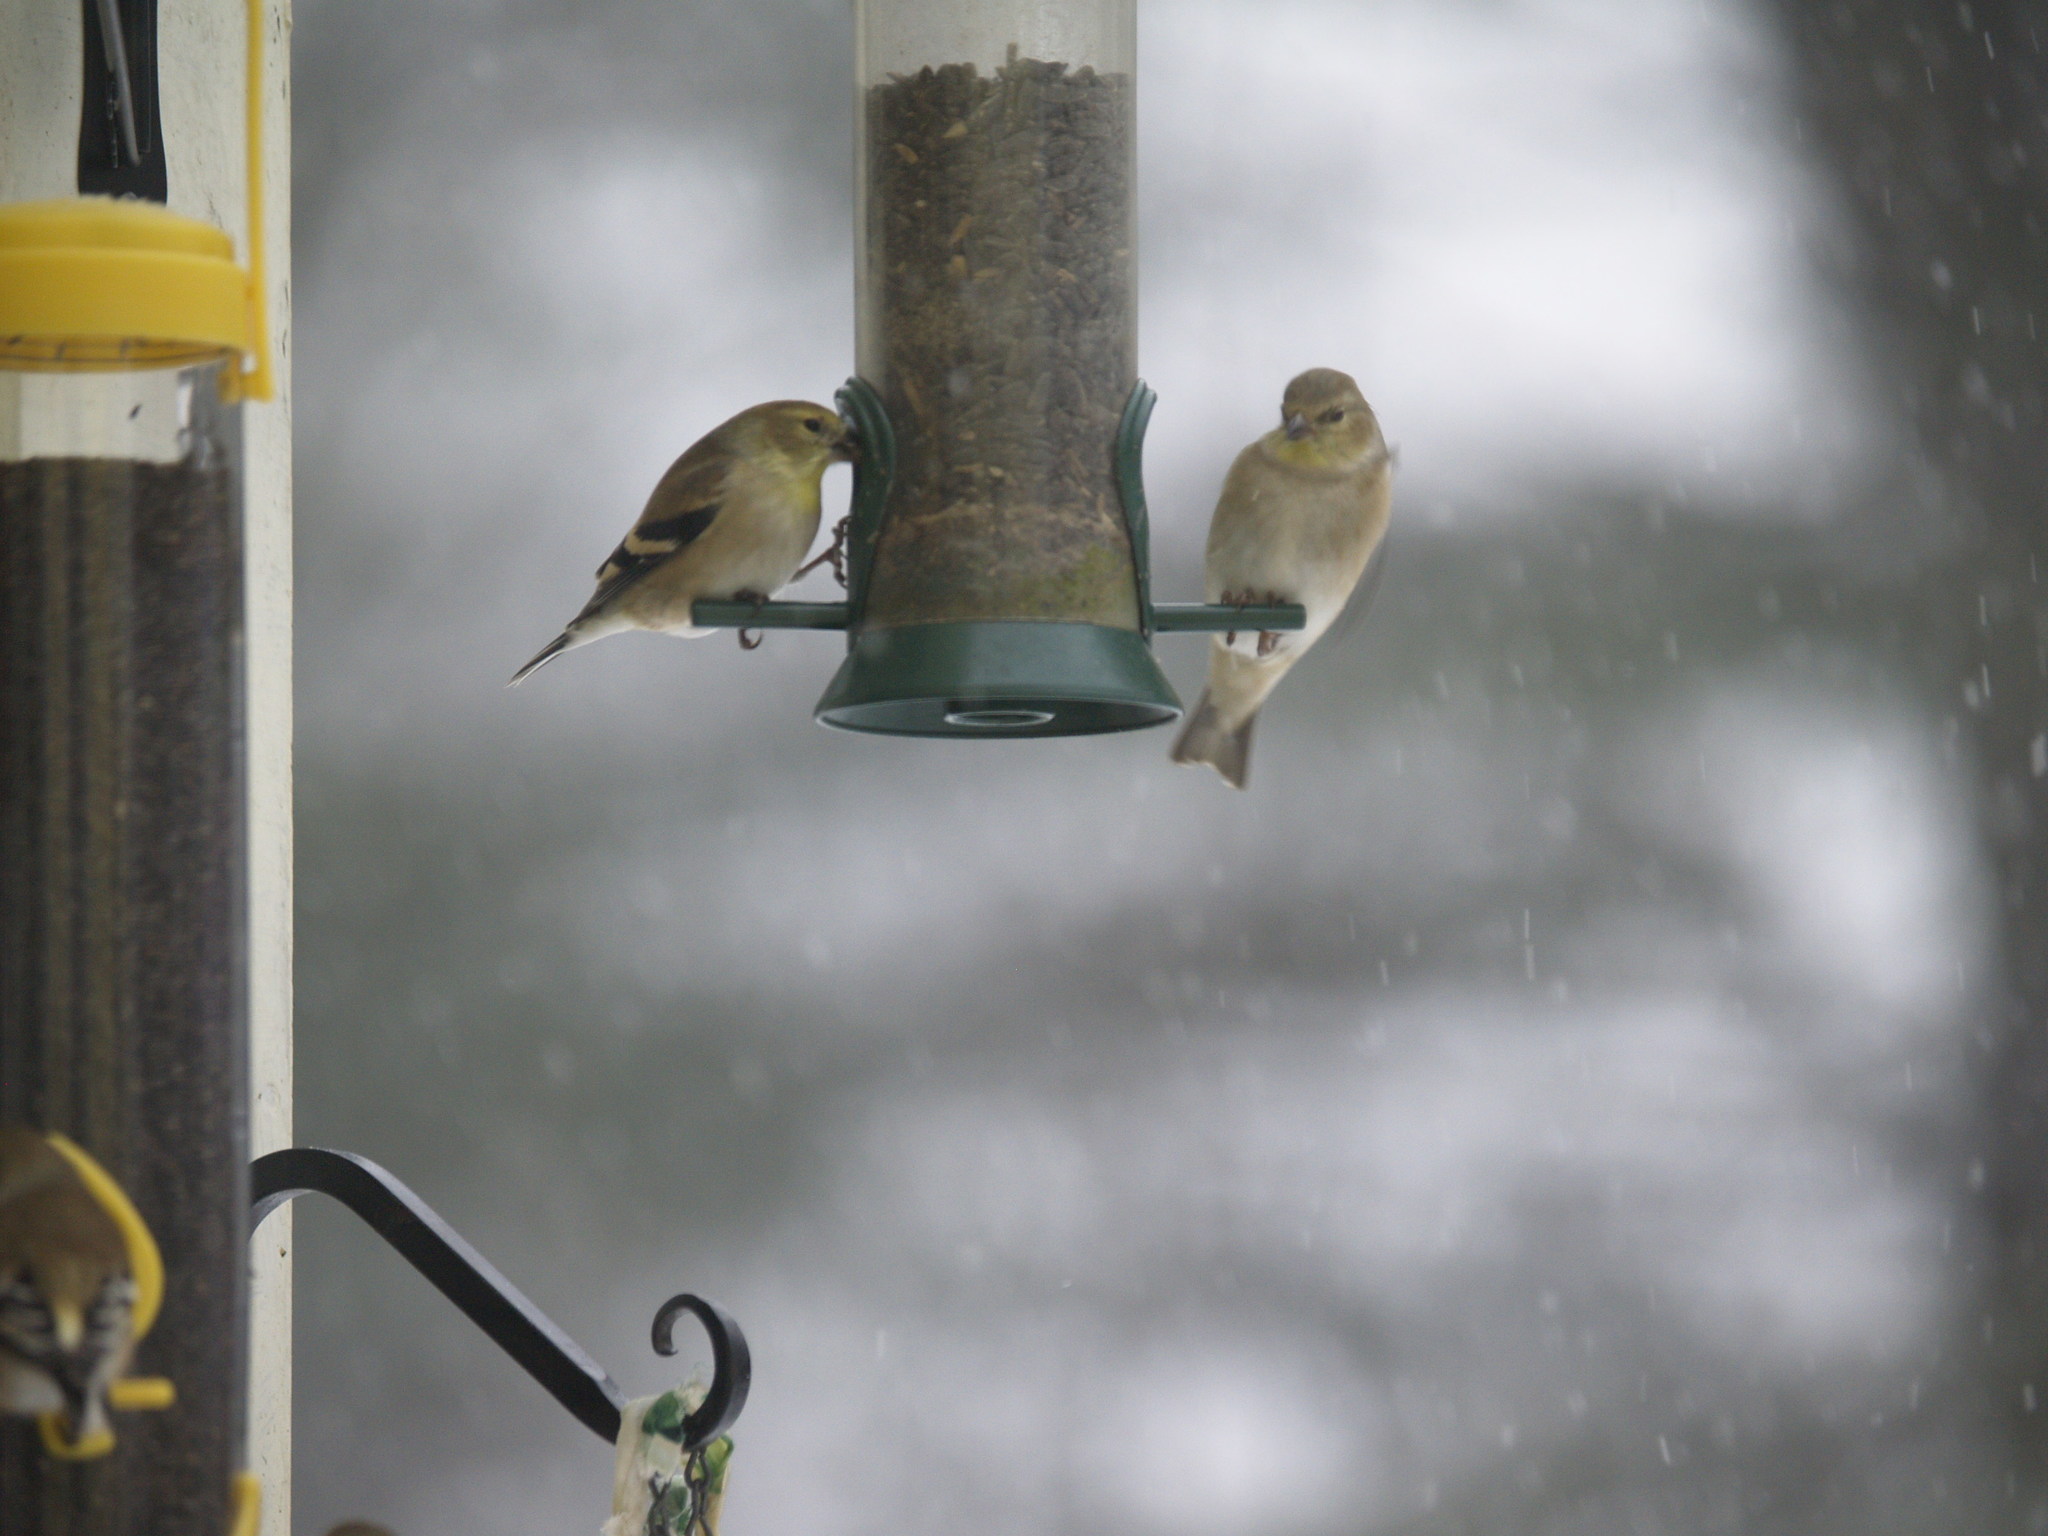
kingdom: Animalia
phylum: Chordata
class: Aves
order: Passeriformes
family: Fringillidae
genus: Spinus
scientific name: Spinus tristis
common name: American goldfinch
